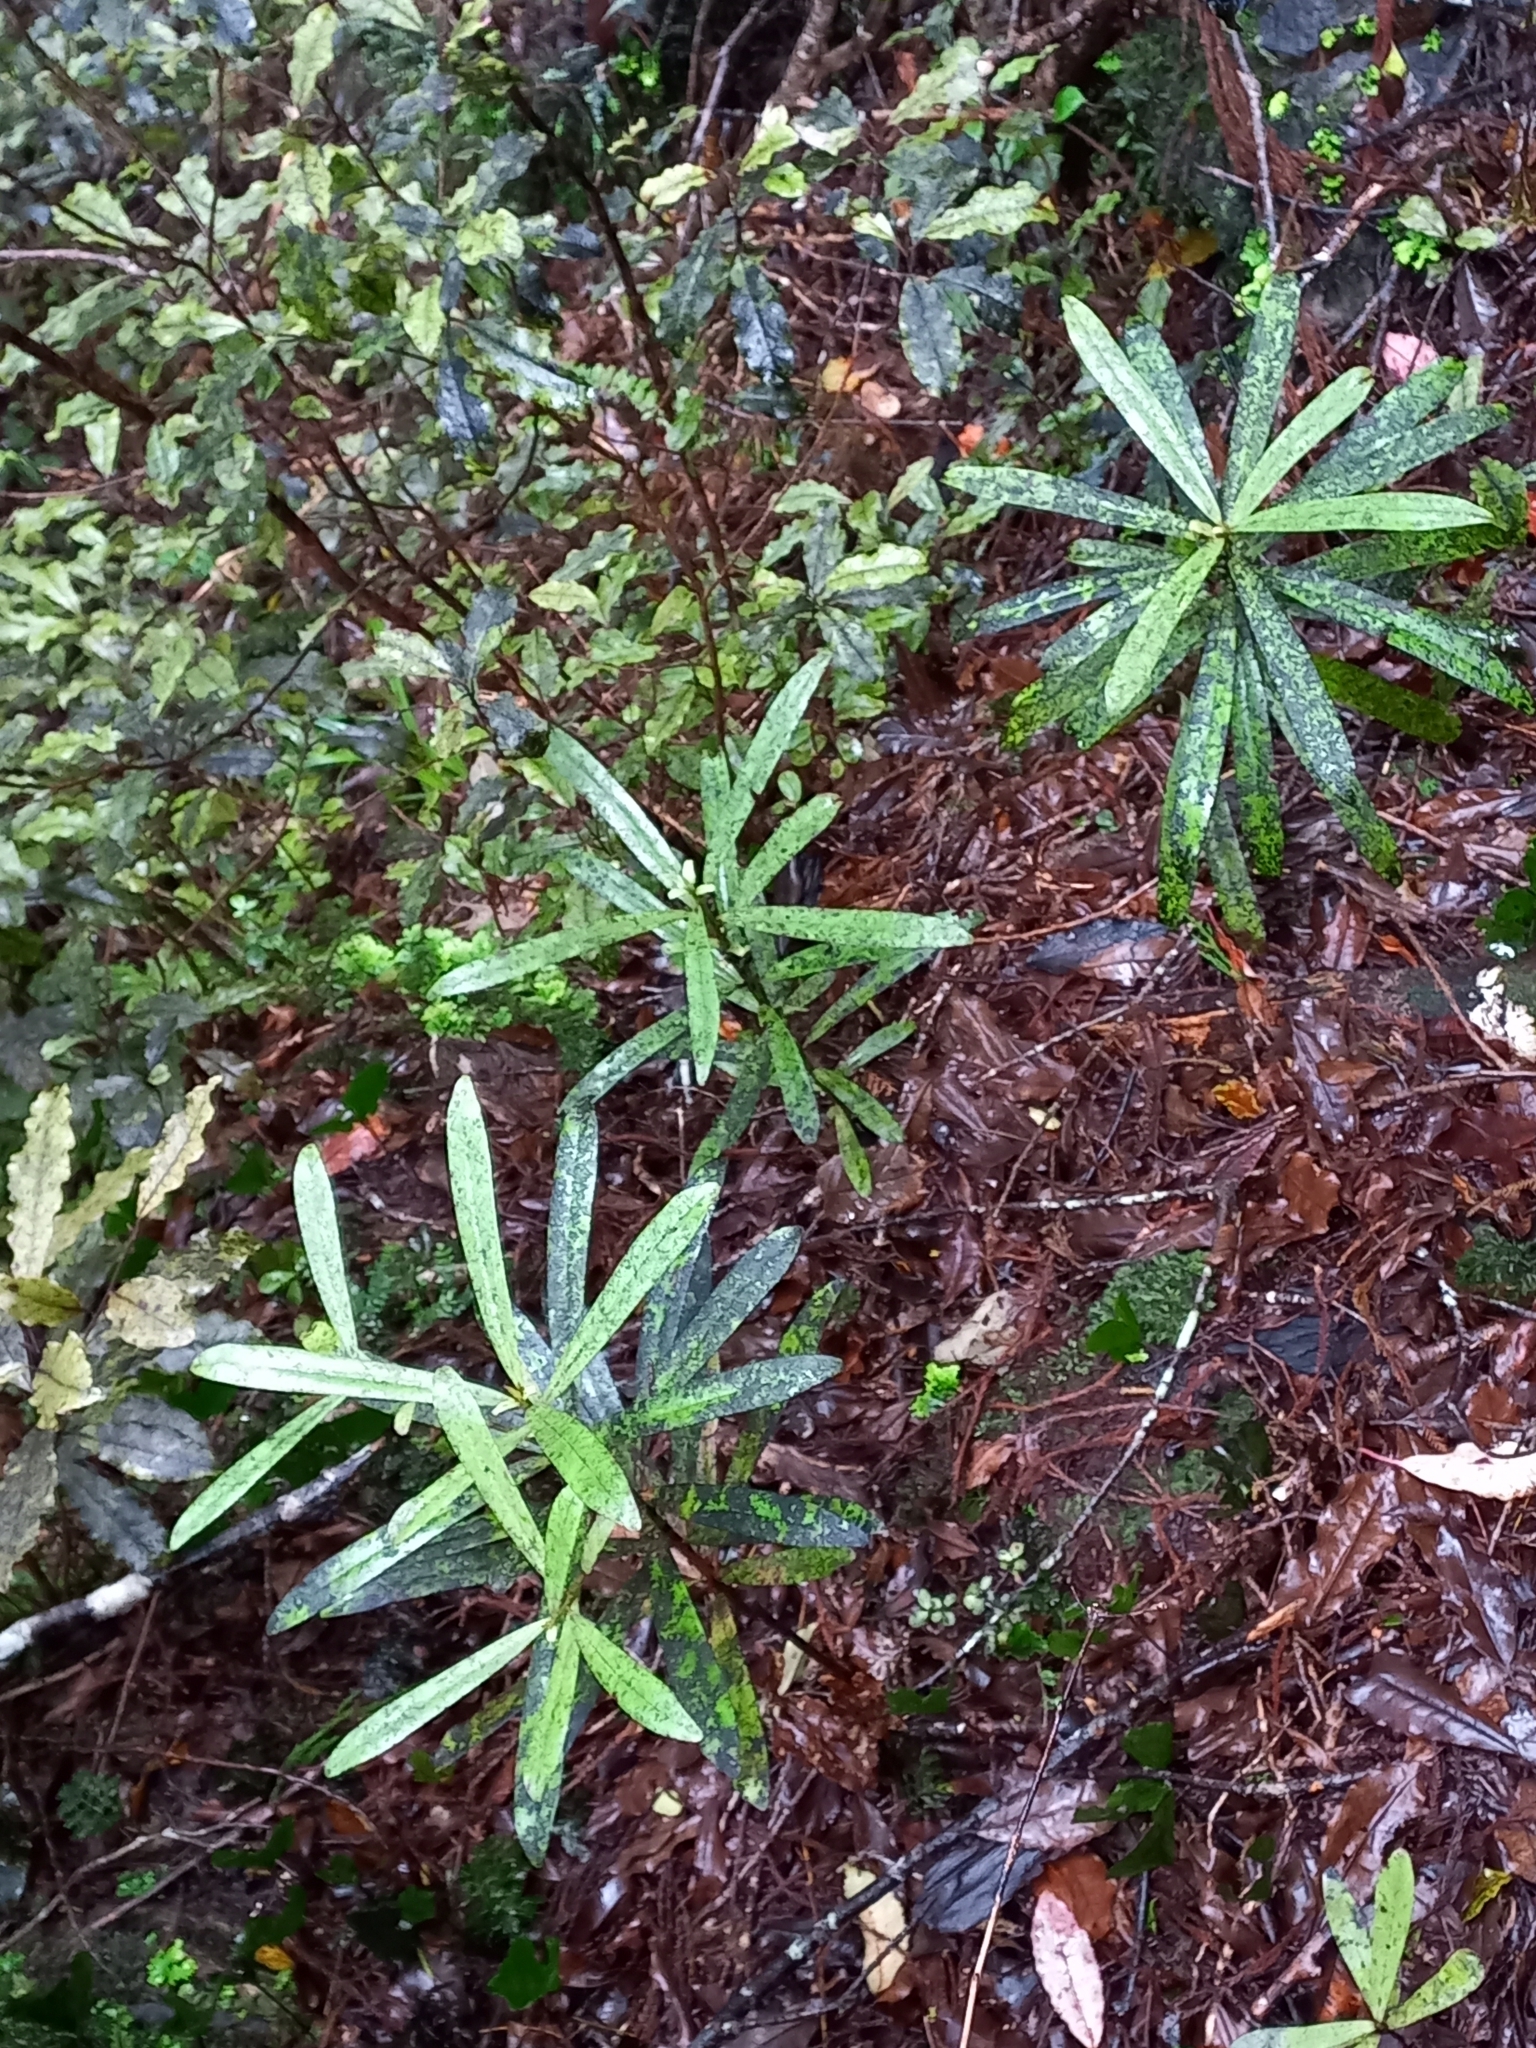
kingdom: Plantae
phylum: Tracheophyta
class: Magnoliopsida
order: Ericales
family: Primulaceae
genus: Myrsine
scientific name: Myrsine salicina
